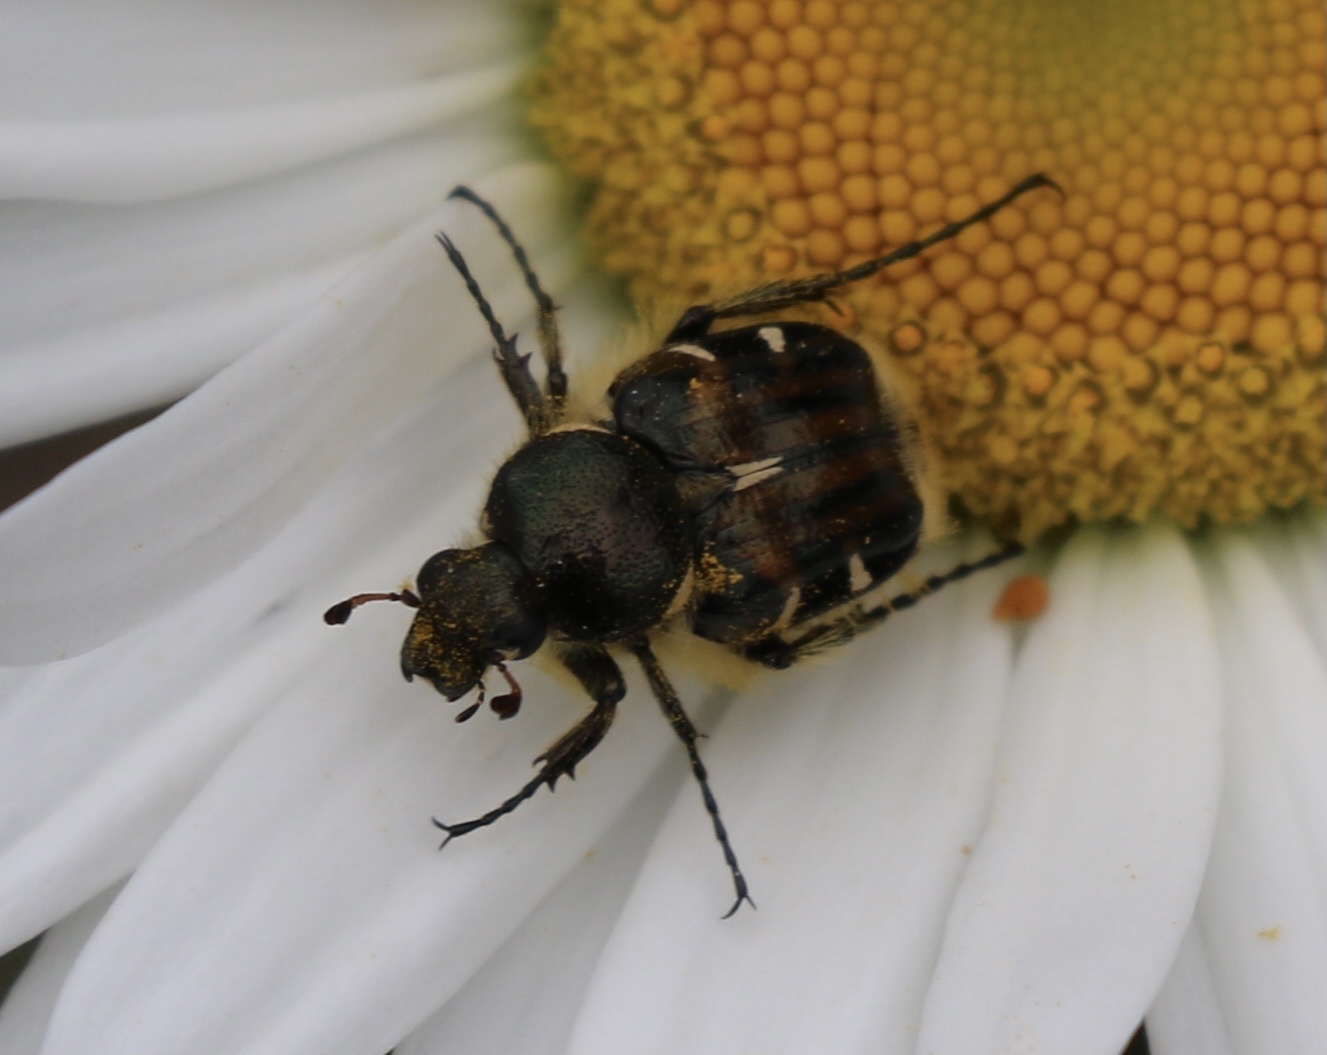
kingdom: Animalia
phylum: Arthropoda
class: Insecta
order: Coleoptera
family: Scarabaeidae
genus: Trichiotinus
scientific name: Trichiotinus piger
